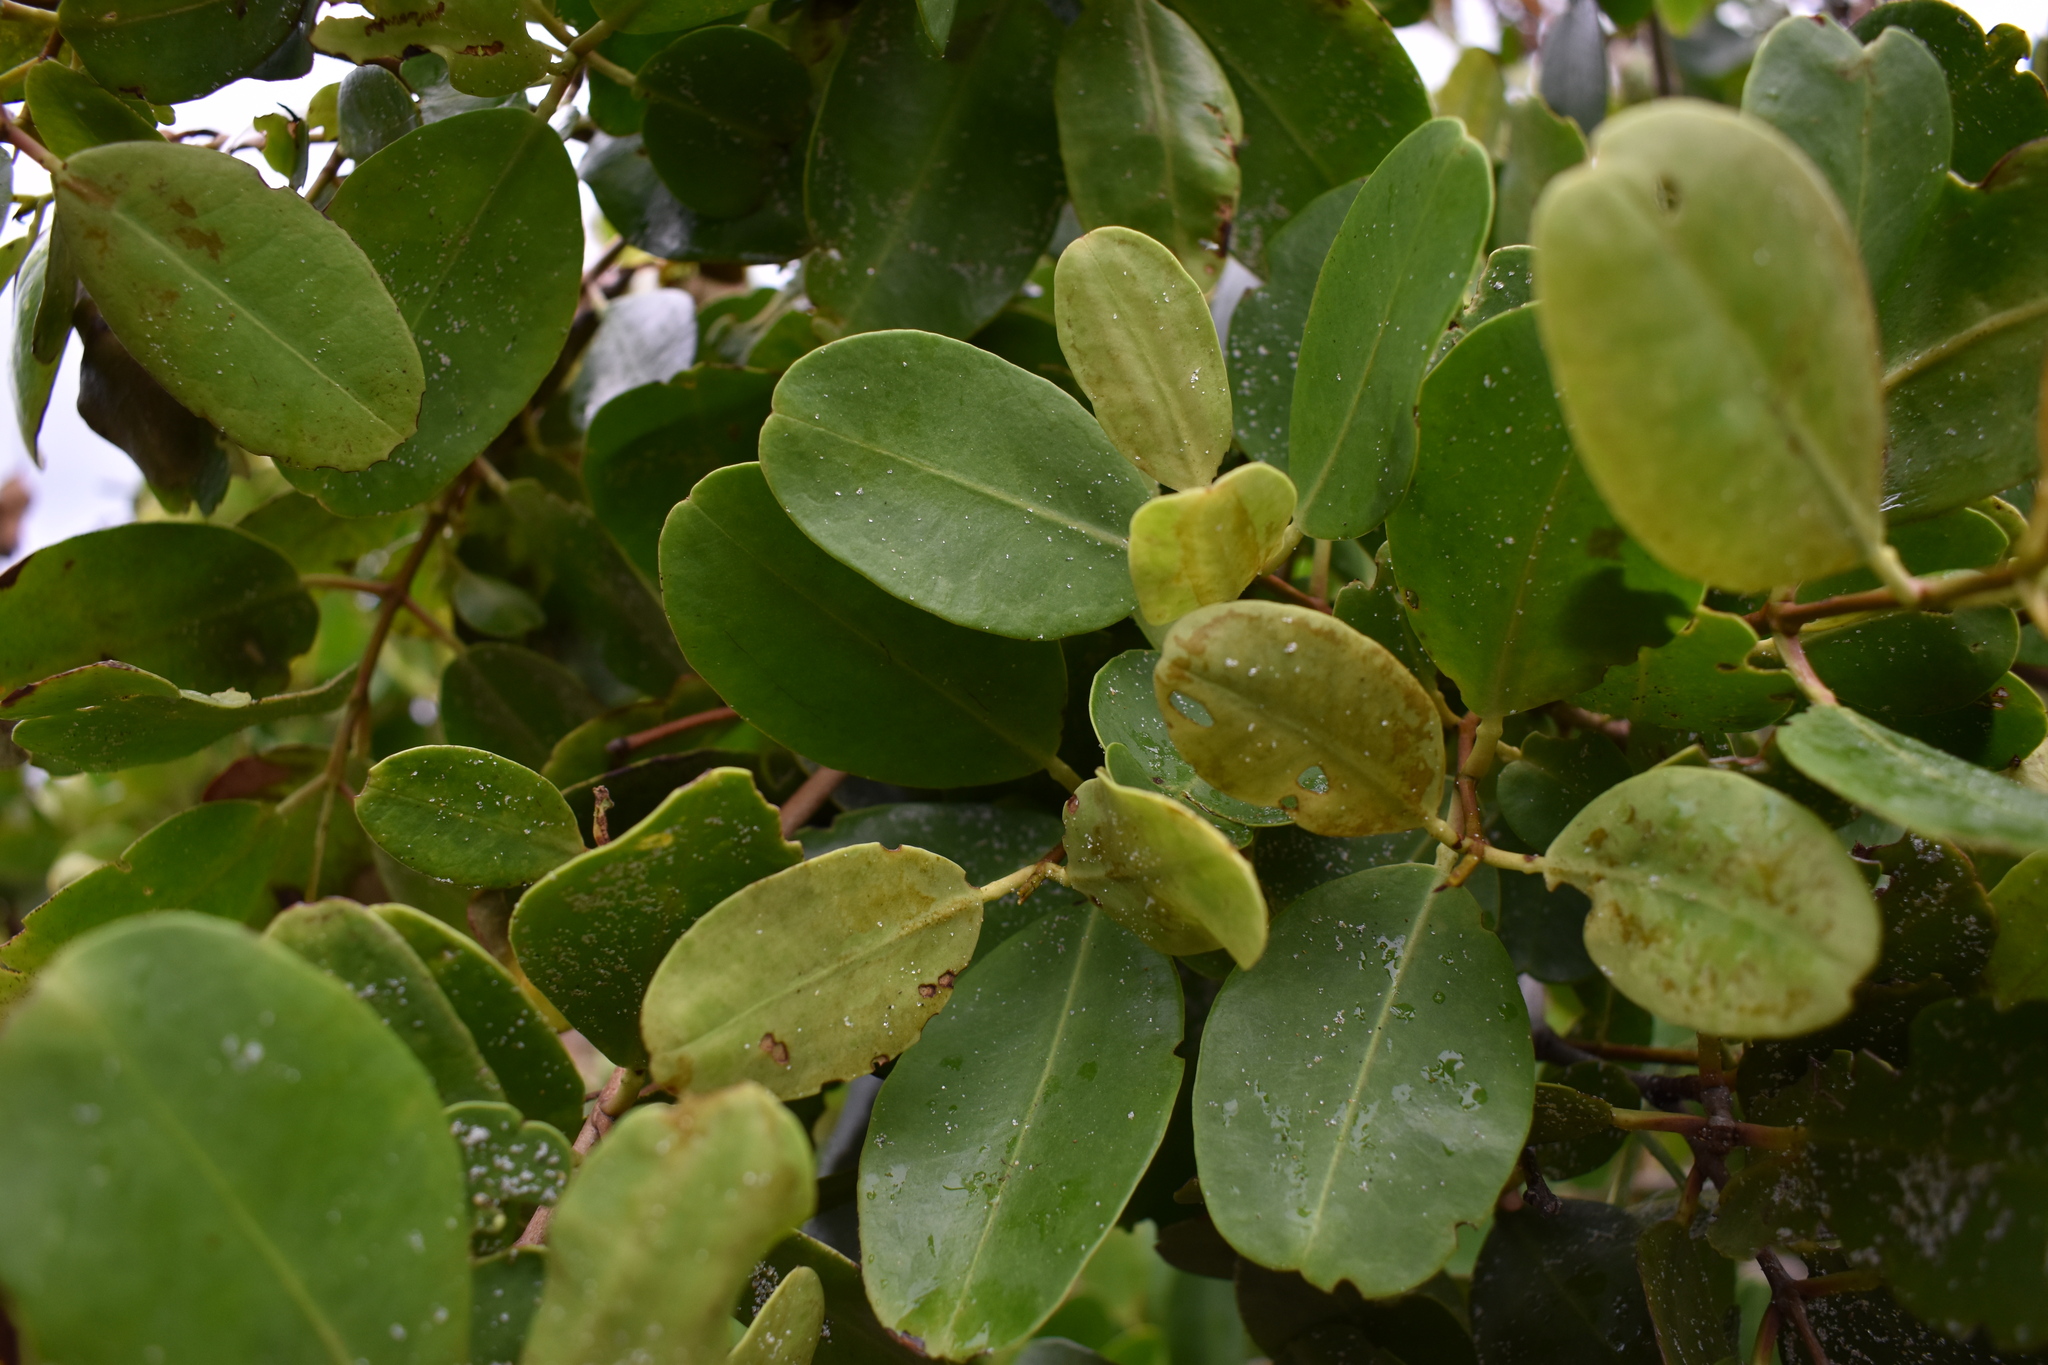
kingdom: Plantae
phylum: Tracheophyta
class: Magnoliopsida
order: Myrtales
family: Combretaceae
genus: Laguncularia
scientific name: Laguncularia racemosa
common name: White mangrove
